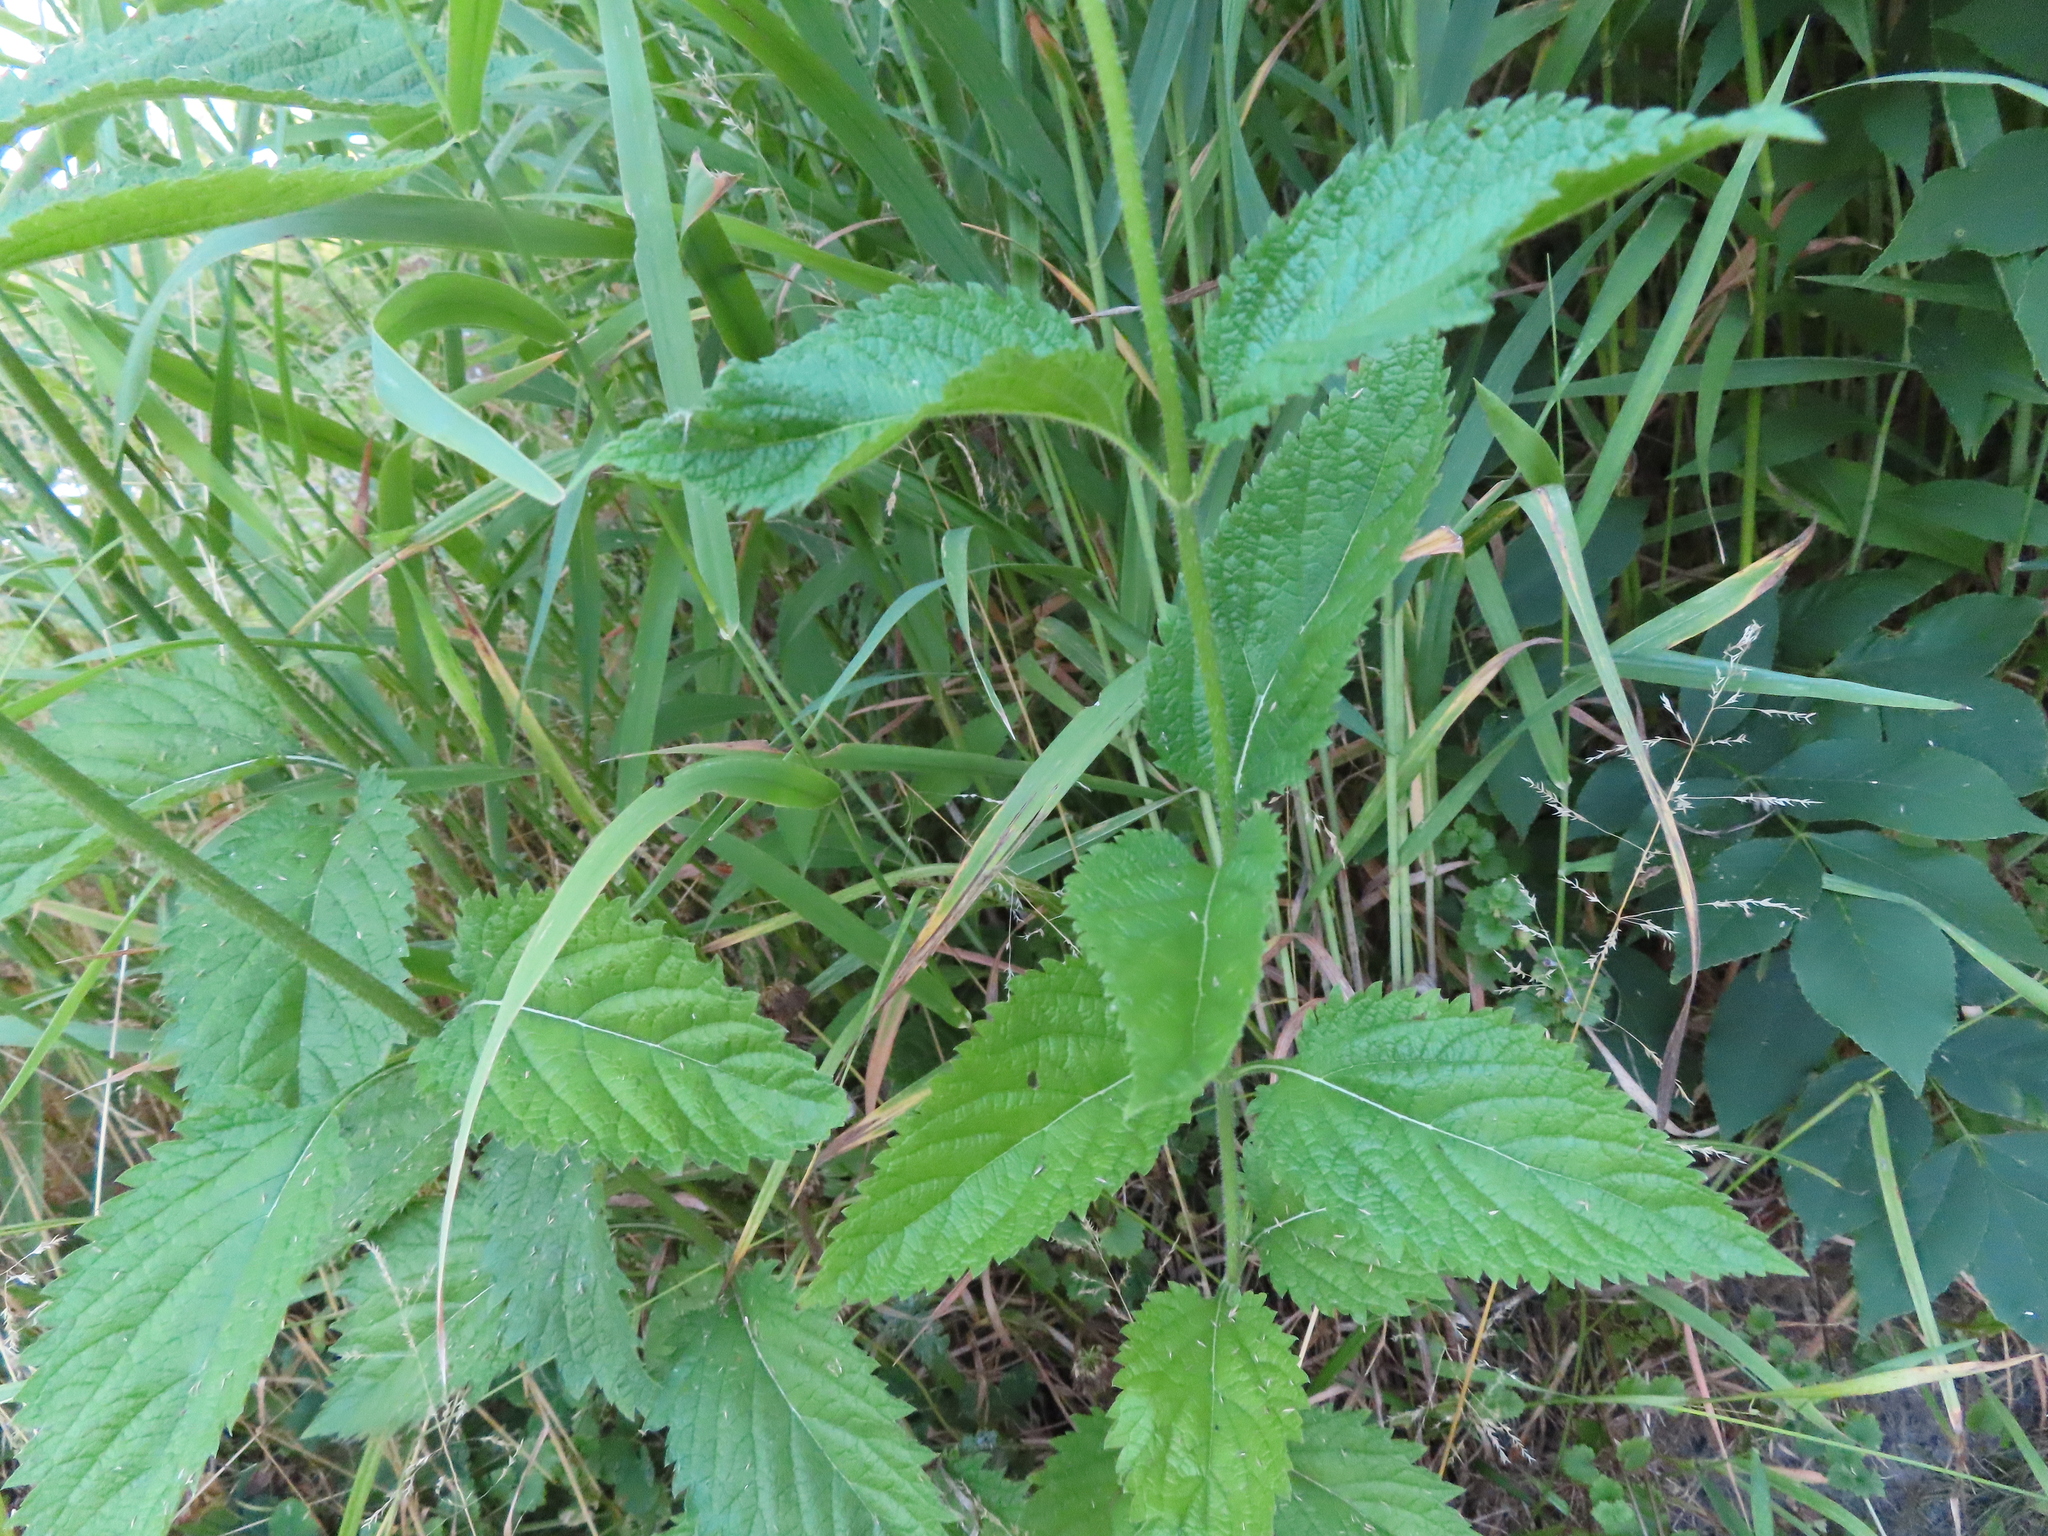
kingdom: Plantae
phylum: Tracheophyta
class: Magnoliopsida
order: Lamiales
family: Verbenaceae
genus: Verbena
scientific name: Verbena urticifolia
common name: Nettle-leaved vervain
